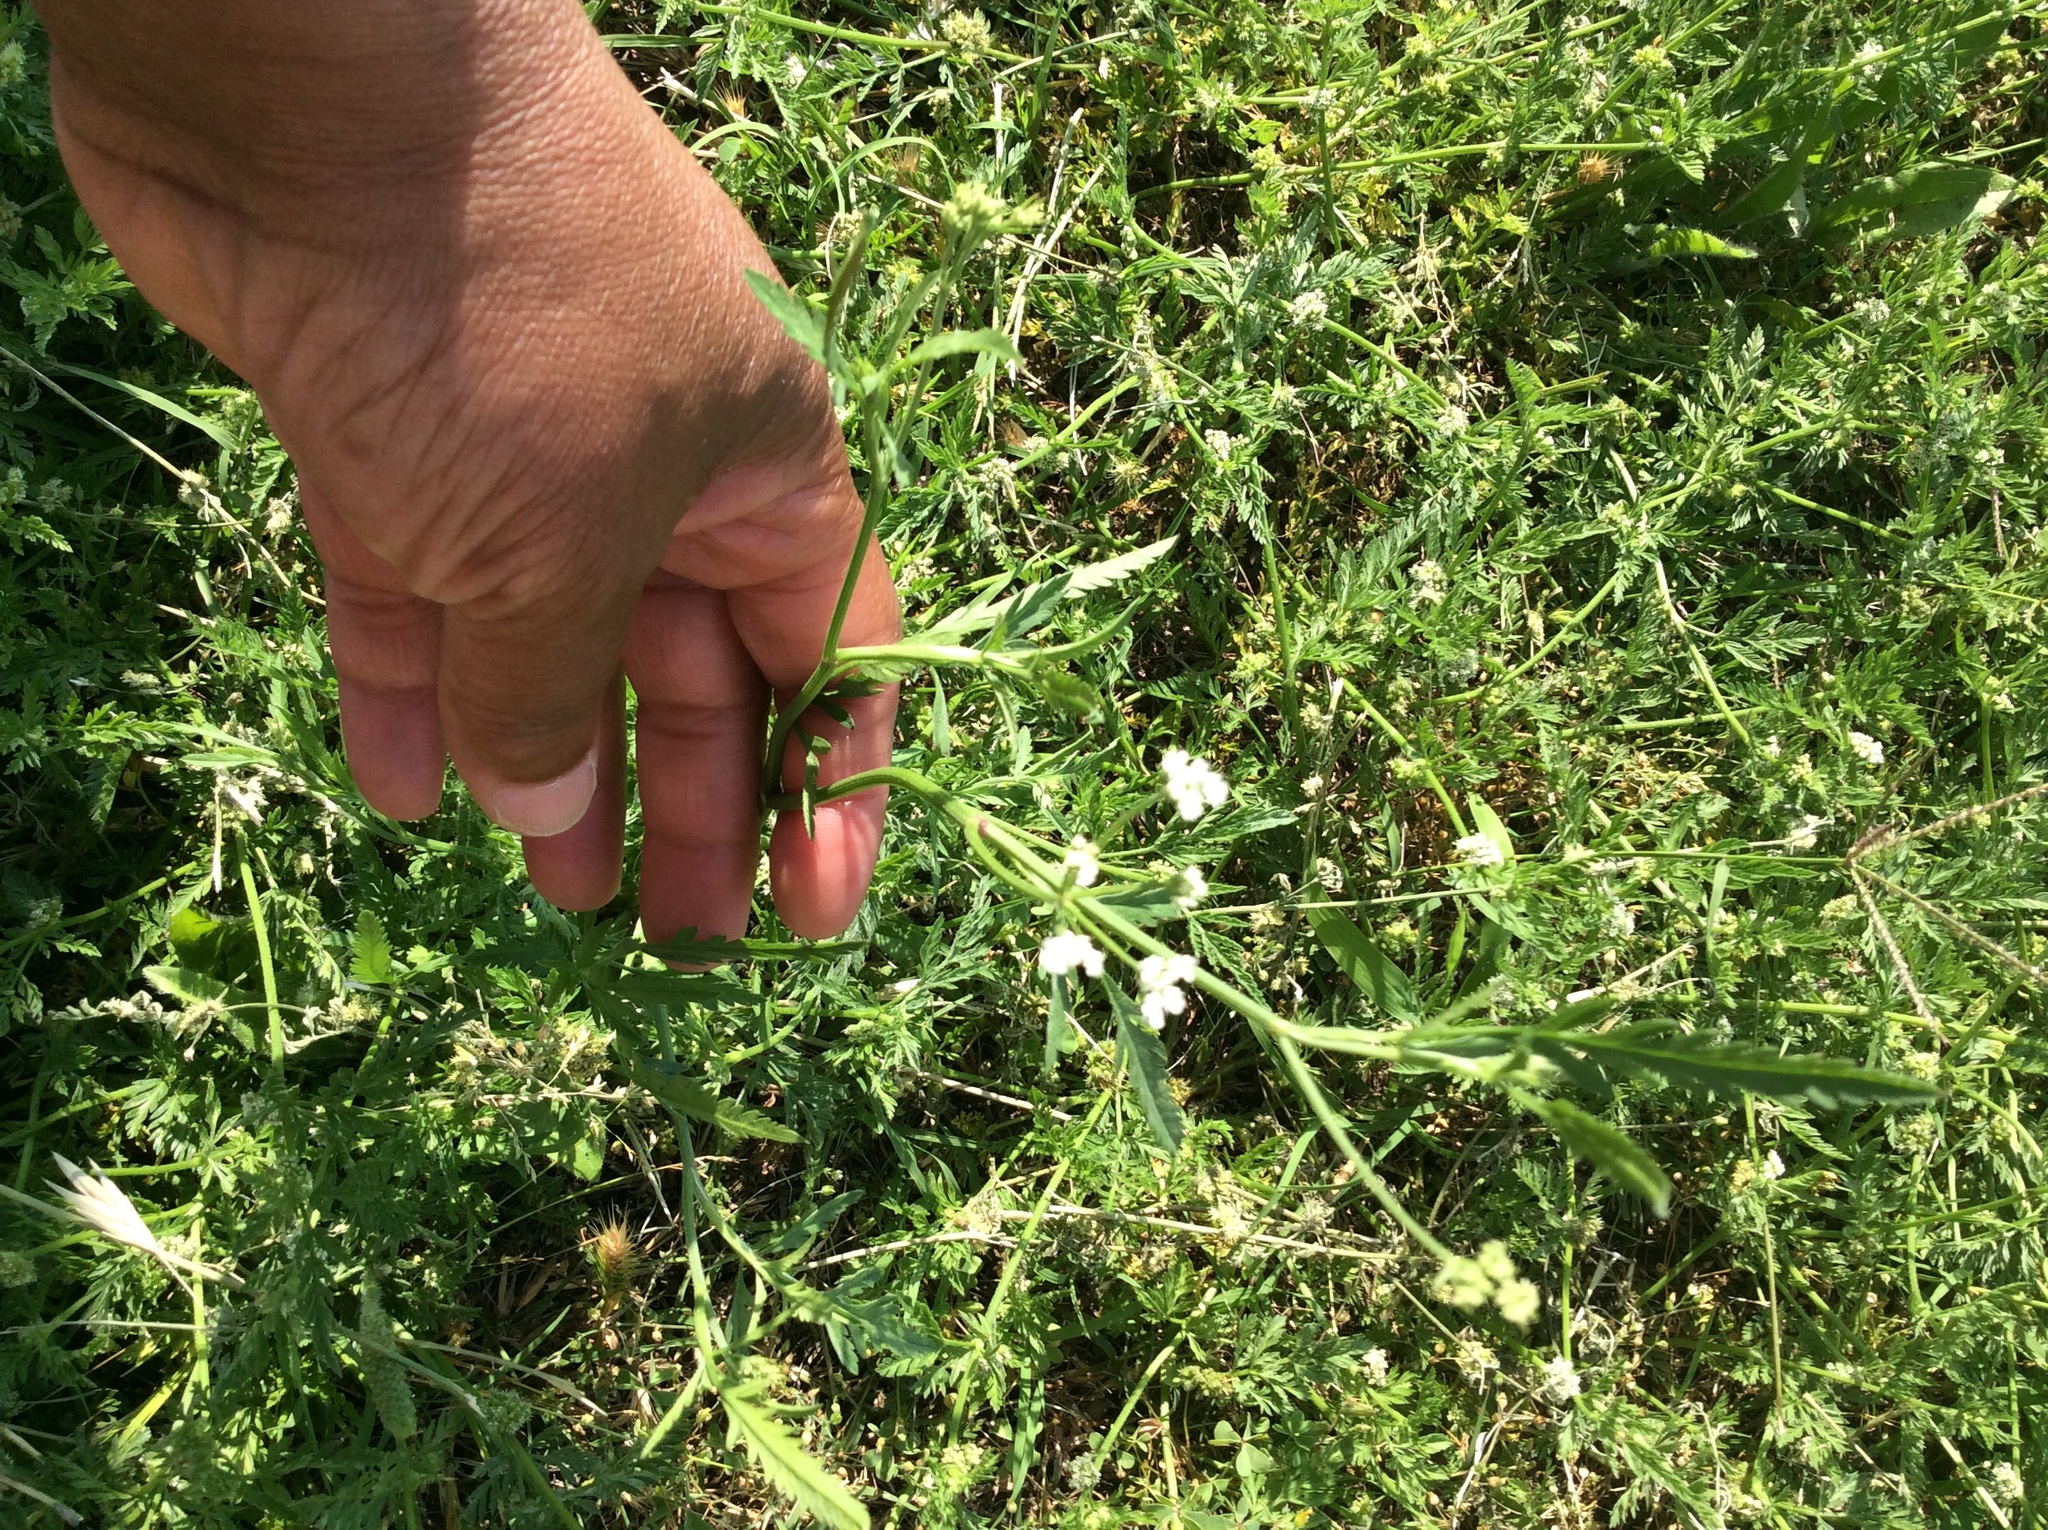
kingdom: Plantae
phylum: Tracheophyta
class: Magnoliopsida
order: Apiales
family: Apiaceae
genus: Torilis
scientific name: Torilis arvensis
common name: Spreading hedge-parsley
